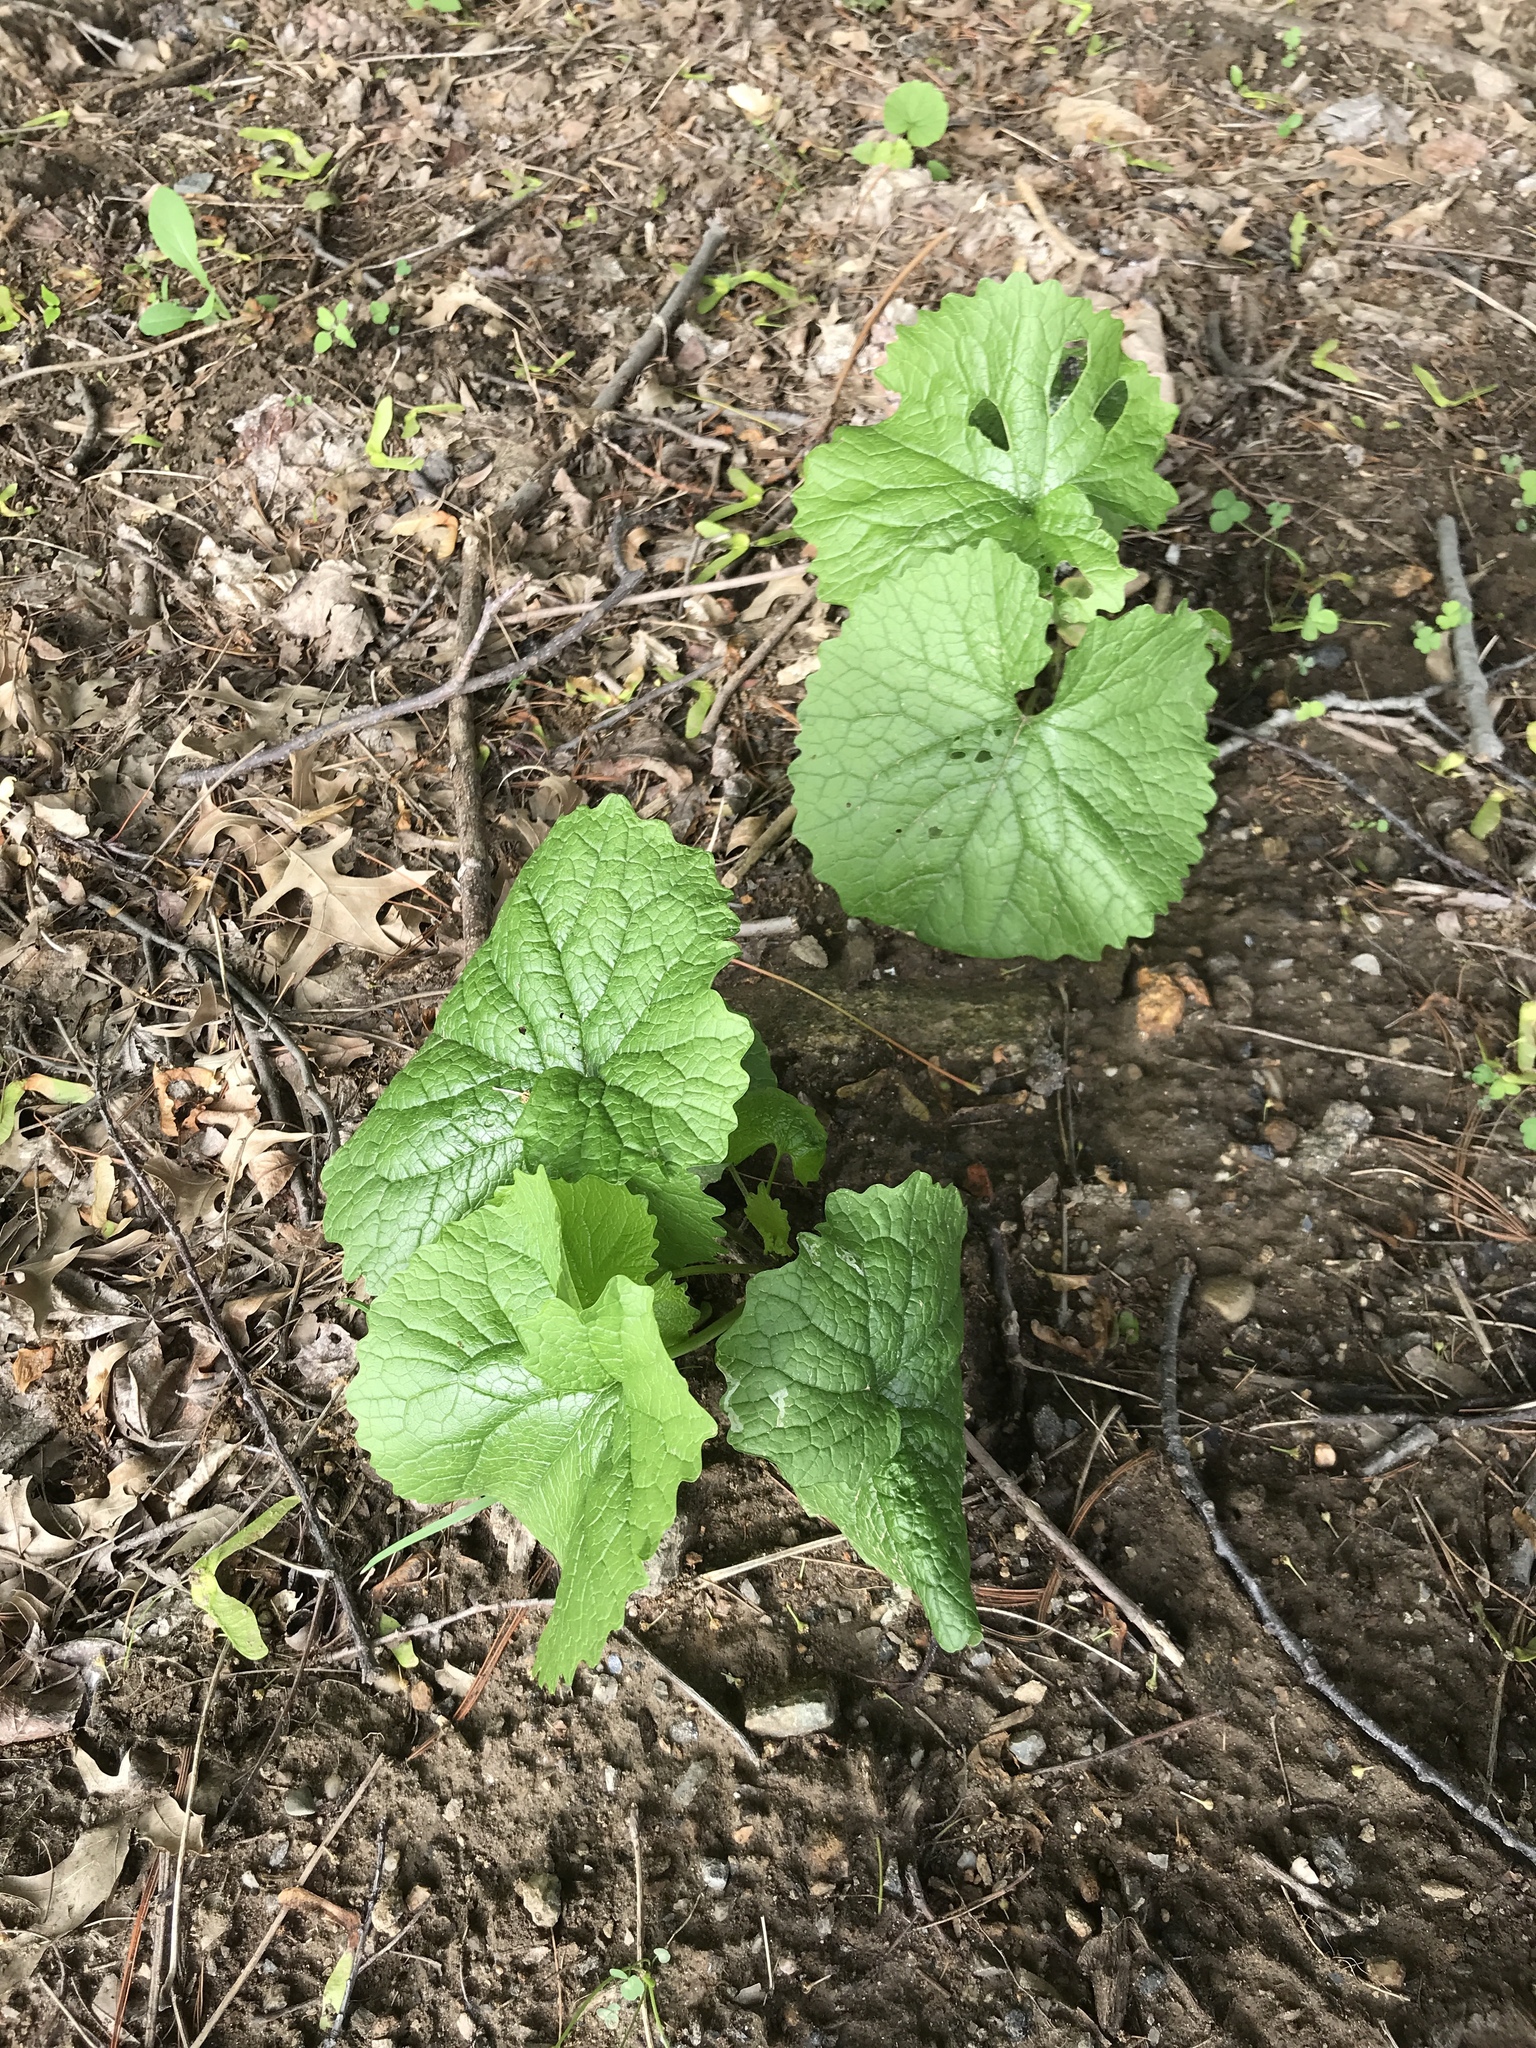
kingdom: Plantae
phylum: Tracheophyta
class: Magnoliopsida
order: Brassicales
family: Brassicaceae
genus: Alliaria
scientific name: Alliaria petiolata
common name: Garlic mustard
